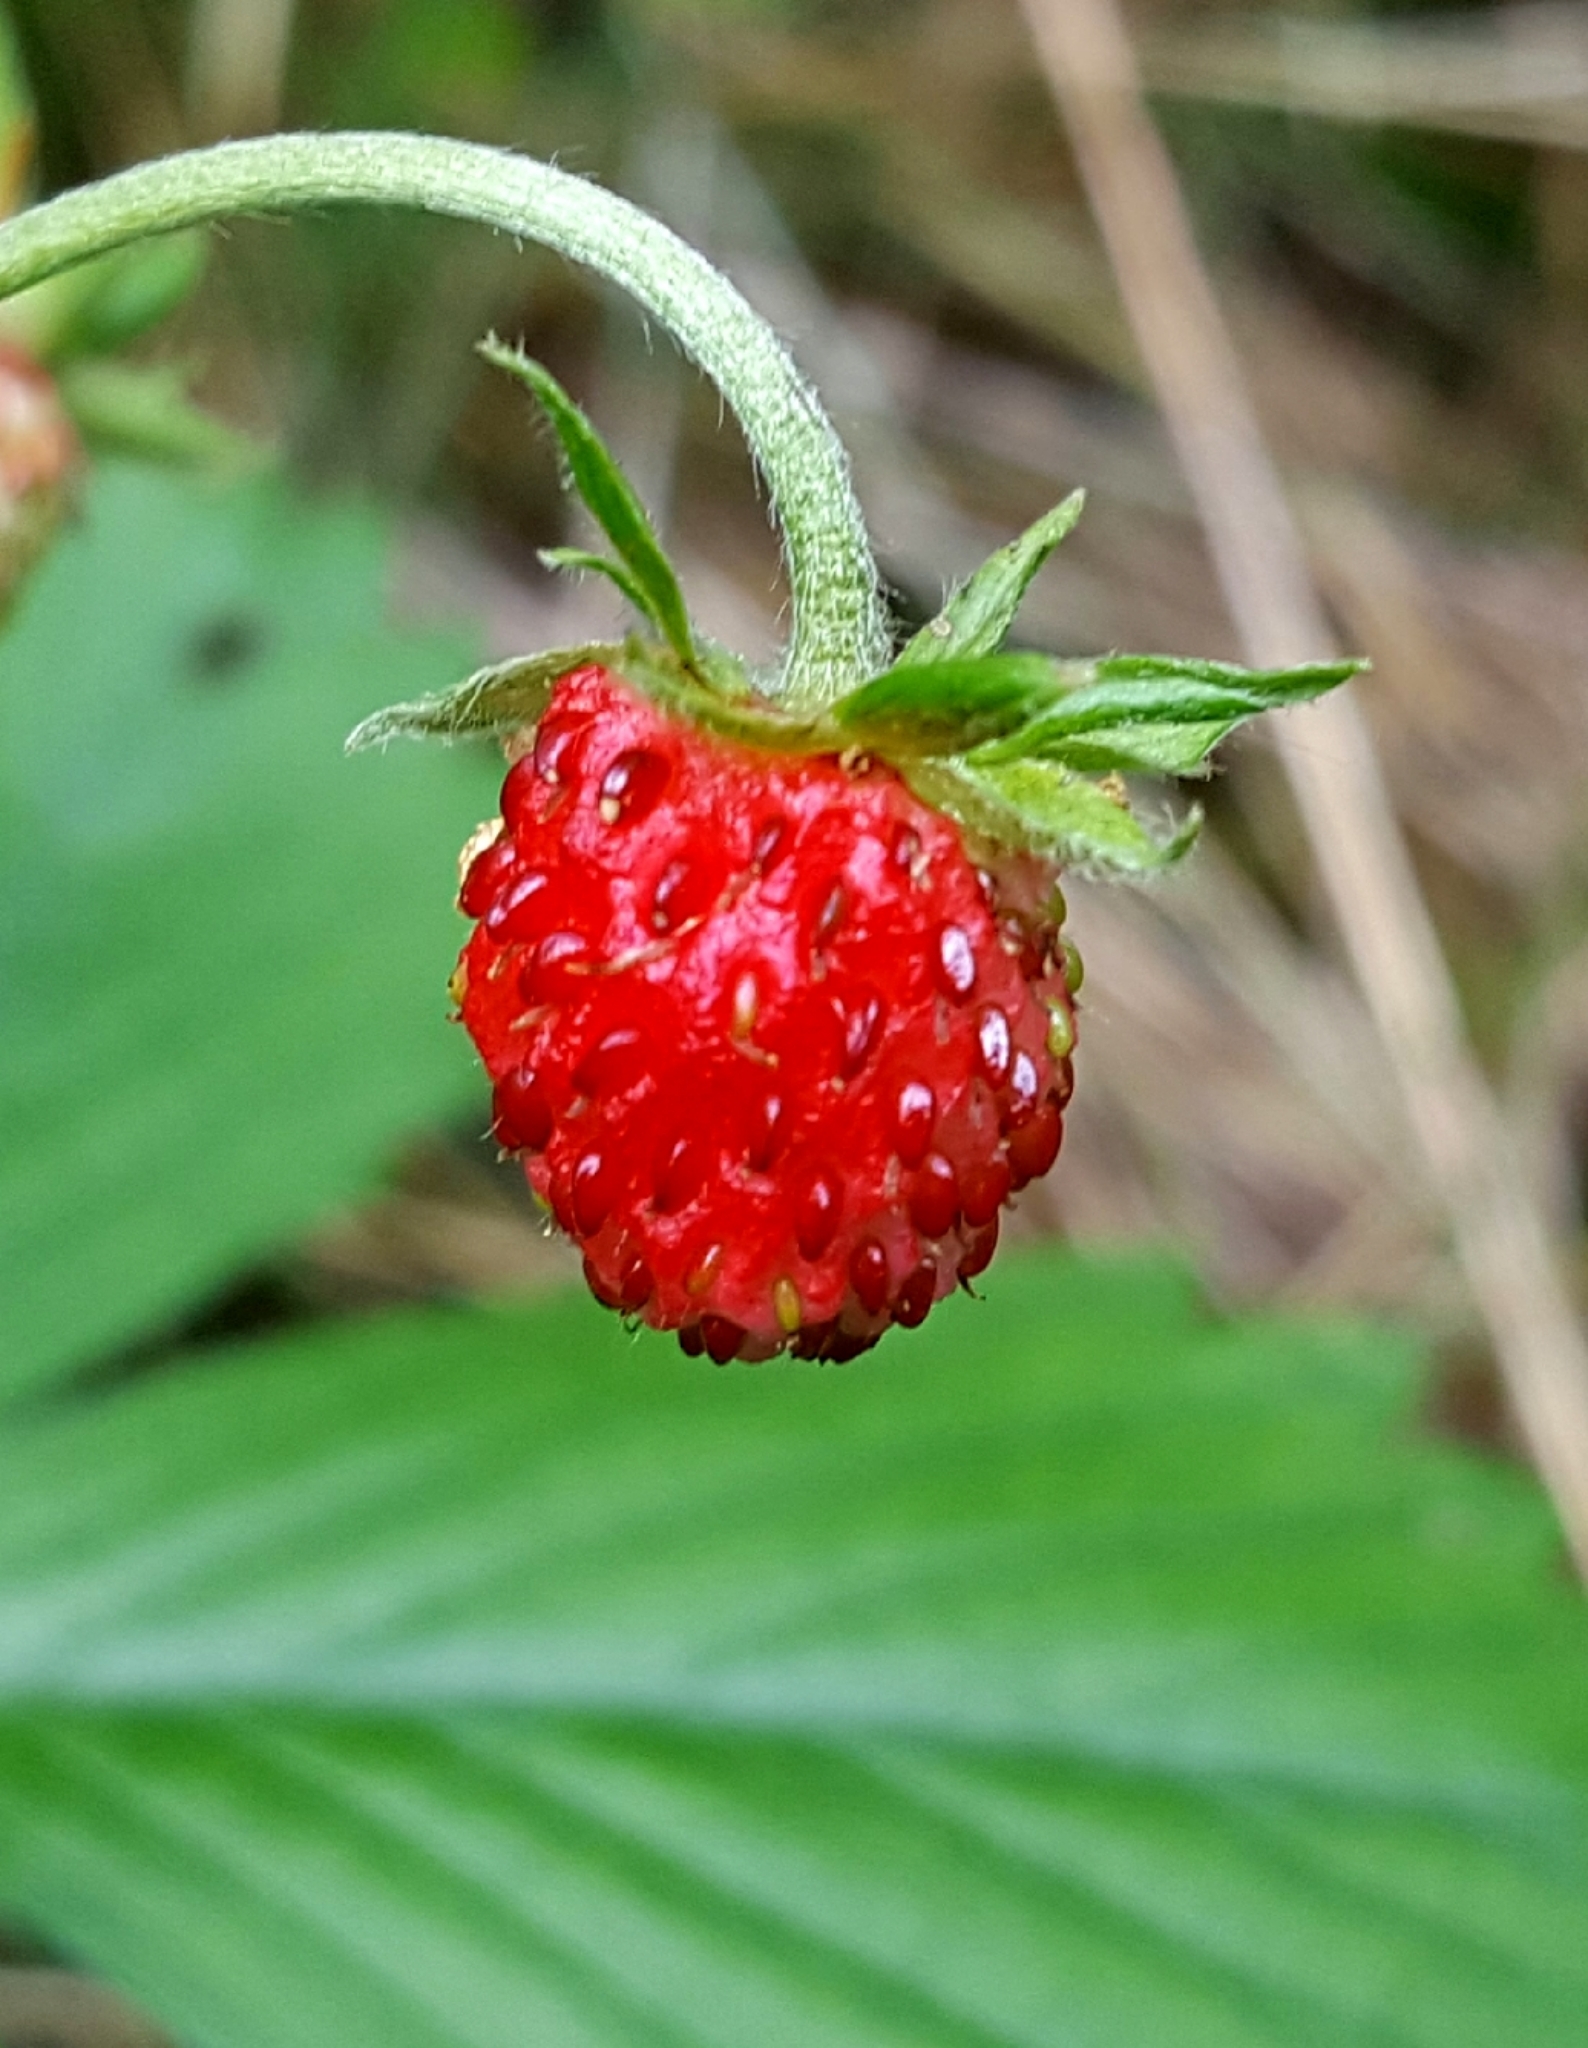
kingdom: Plantae
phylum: Tracheophyta
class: Magnoliopsida
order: Rosales
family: Rosaceae
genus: Fragaria
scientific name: Fragaria vesca
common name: Wild strawberry
